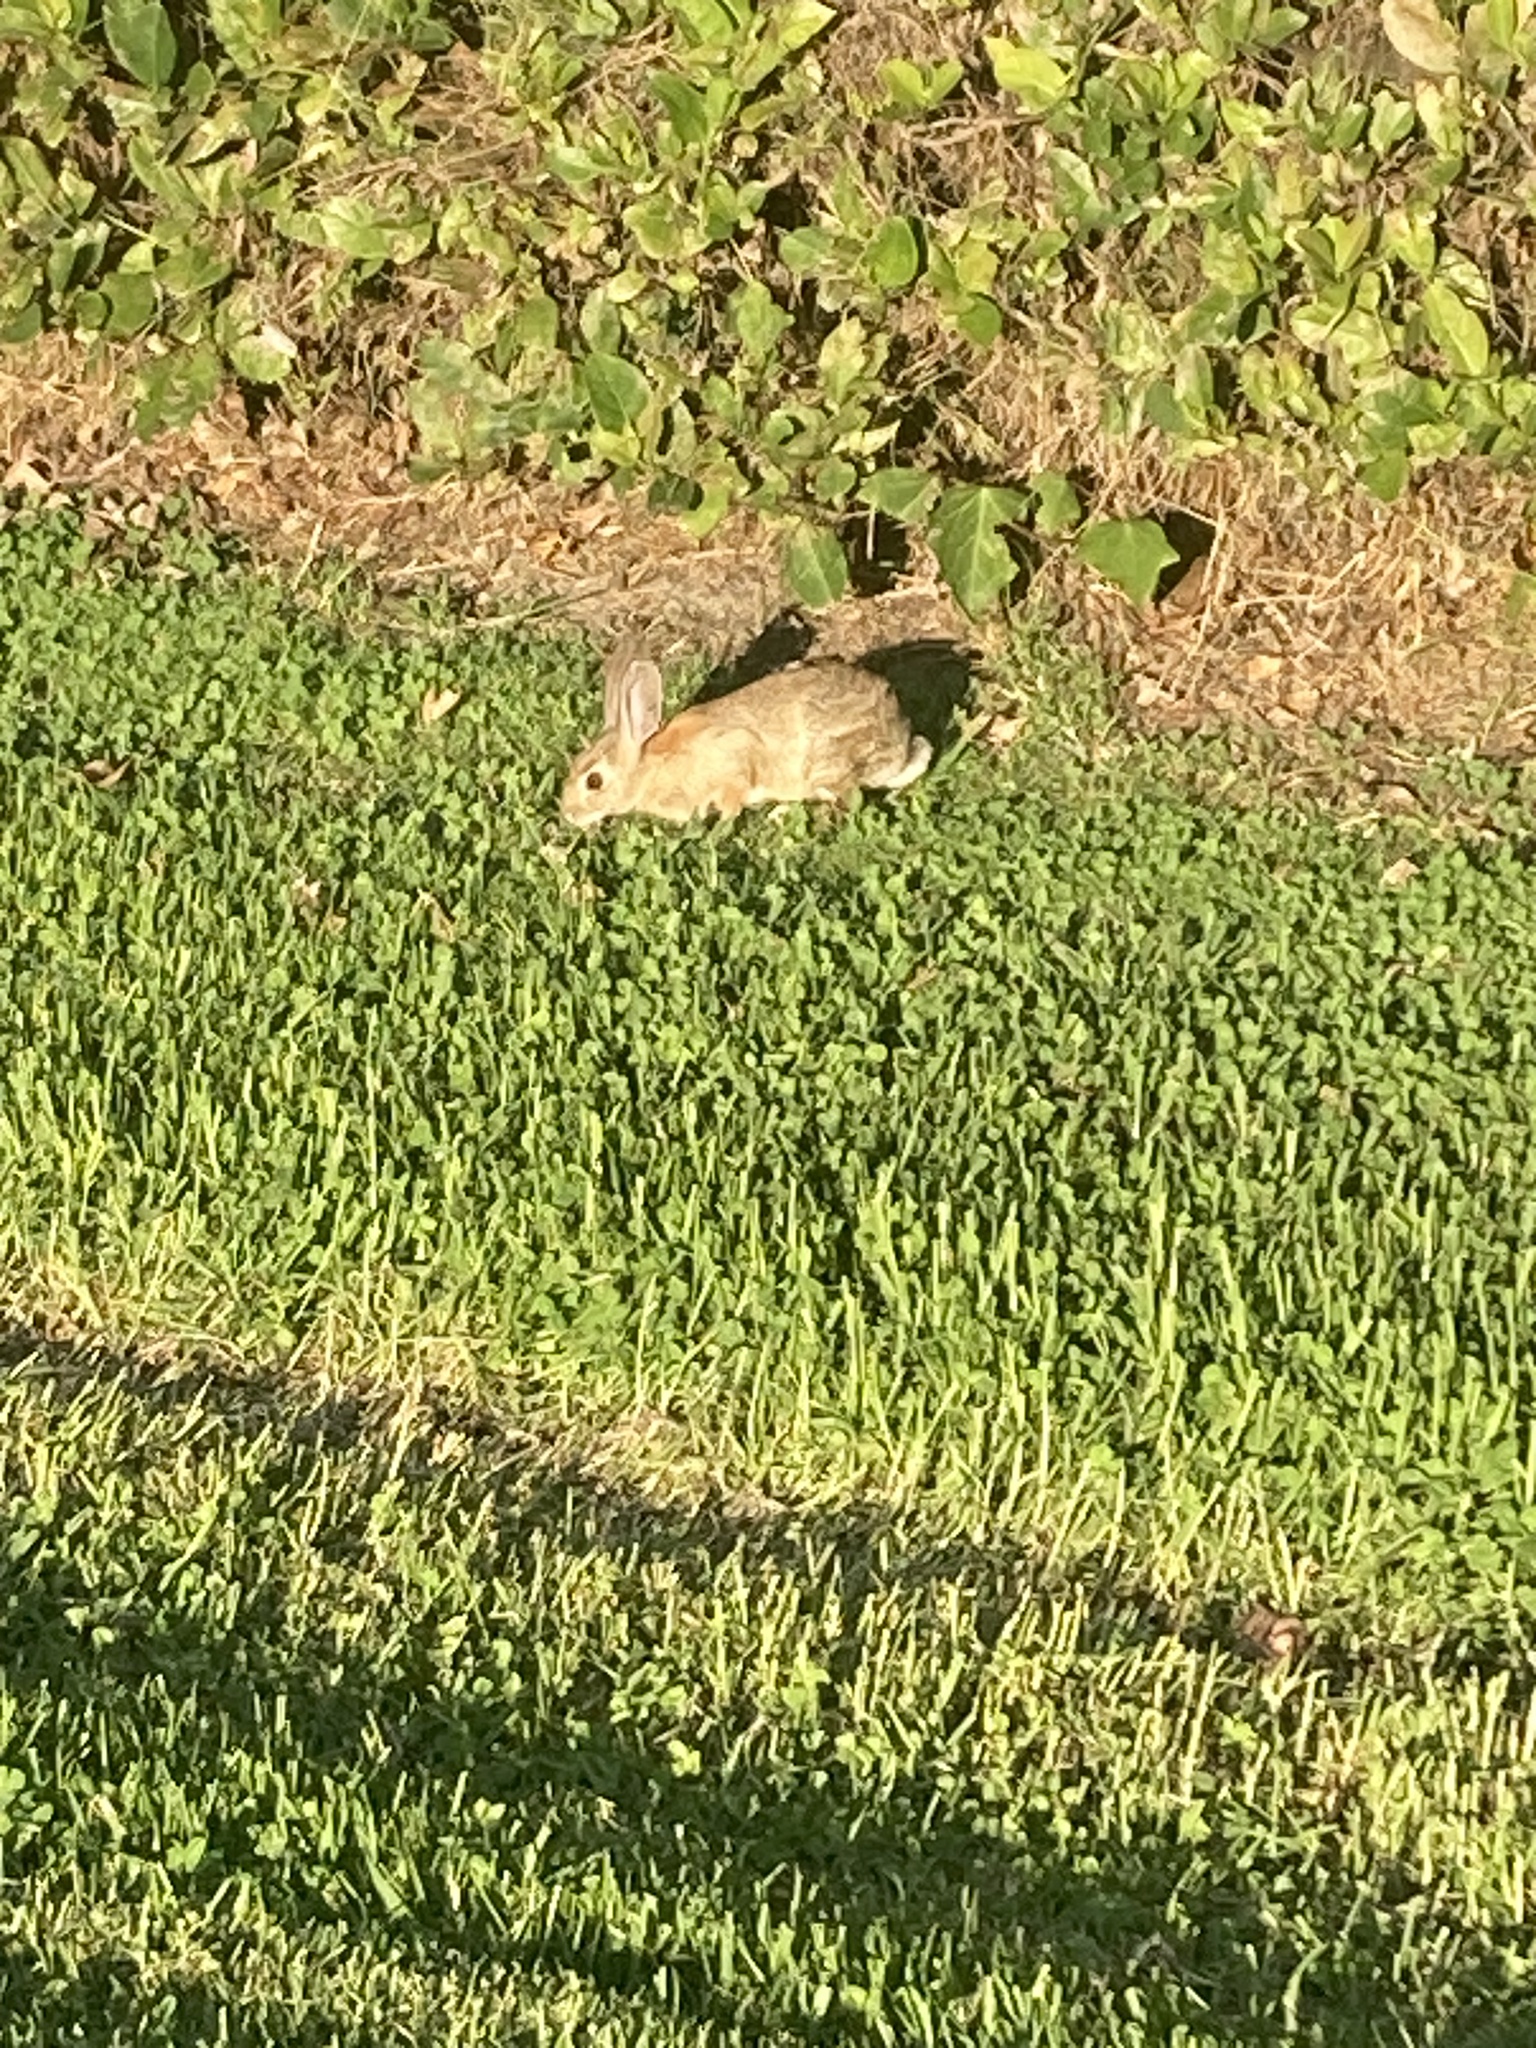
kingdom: Animalia
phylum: Chordata
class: Mammalia
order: Lagomorpha
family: Leporidae
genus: Sylvilagus
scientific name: Sylvilagus audubonii
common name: Desert cottontail
